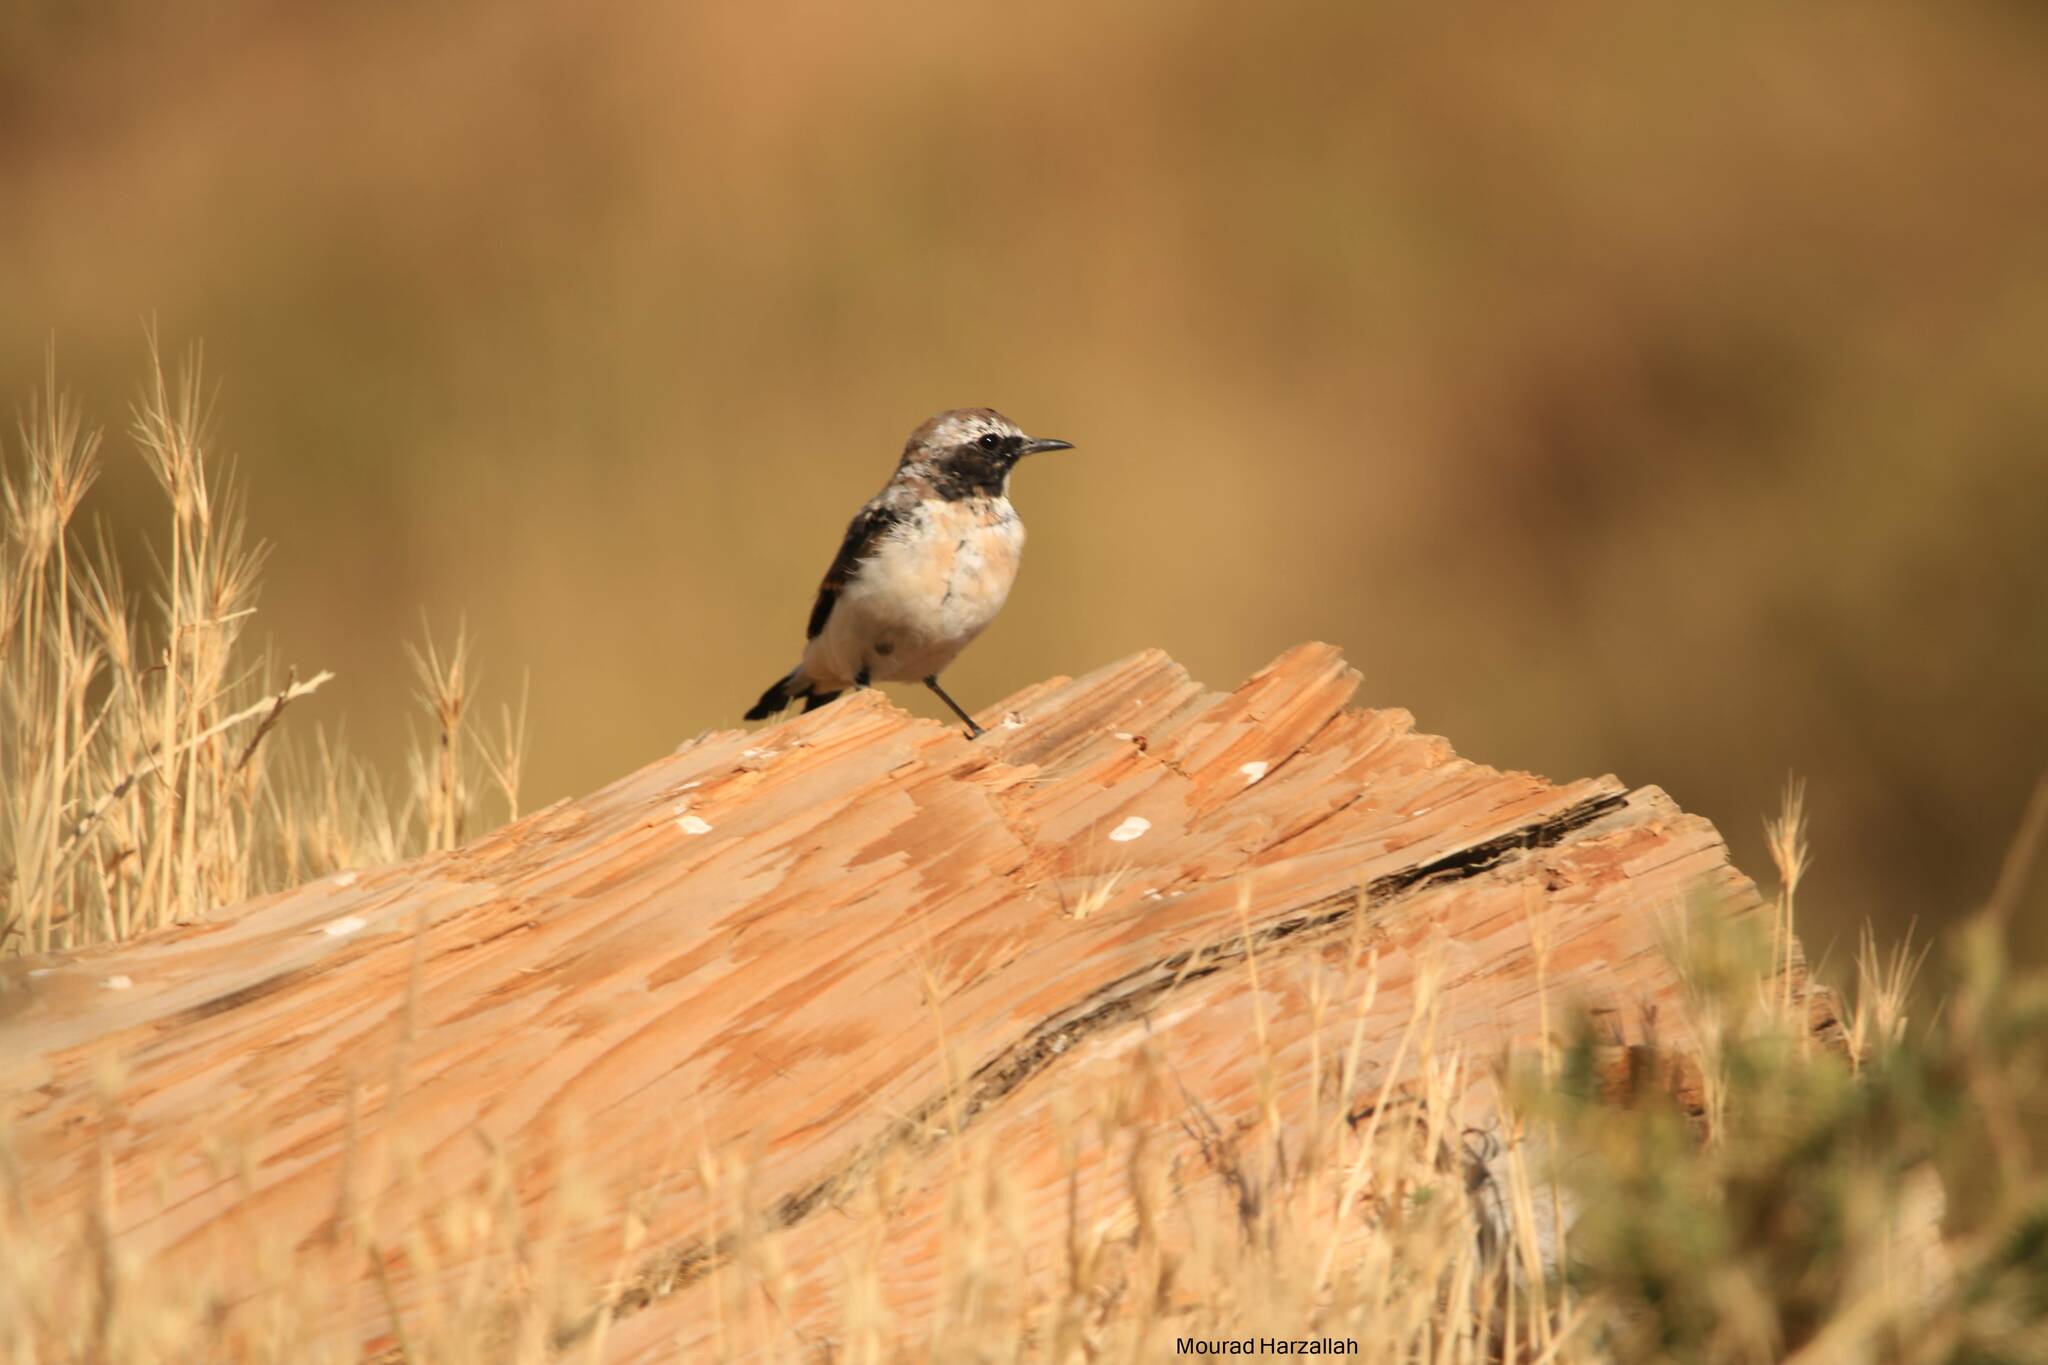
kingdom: Animalia
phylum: Chordata
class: Aves
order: Passeriformes
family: Muscicapidae
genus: Oenanthe
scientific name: Oenanthe oenanthe
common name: Northern wheatear
